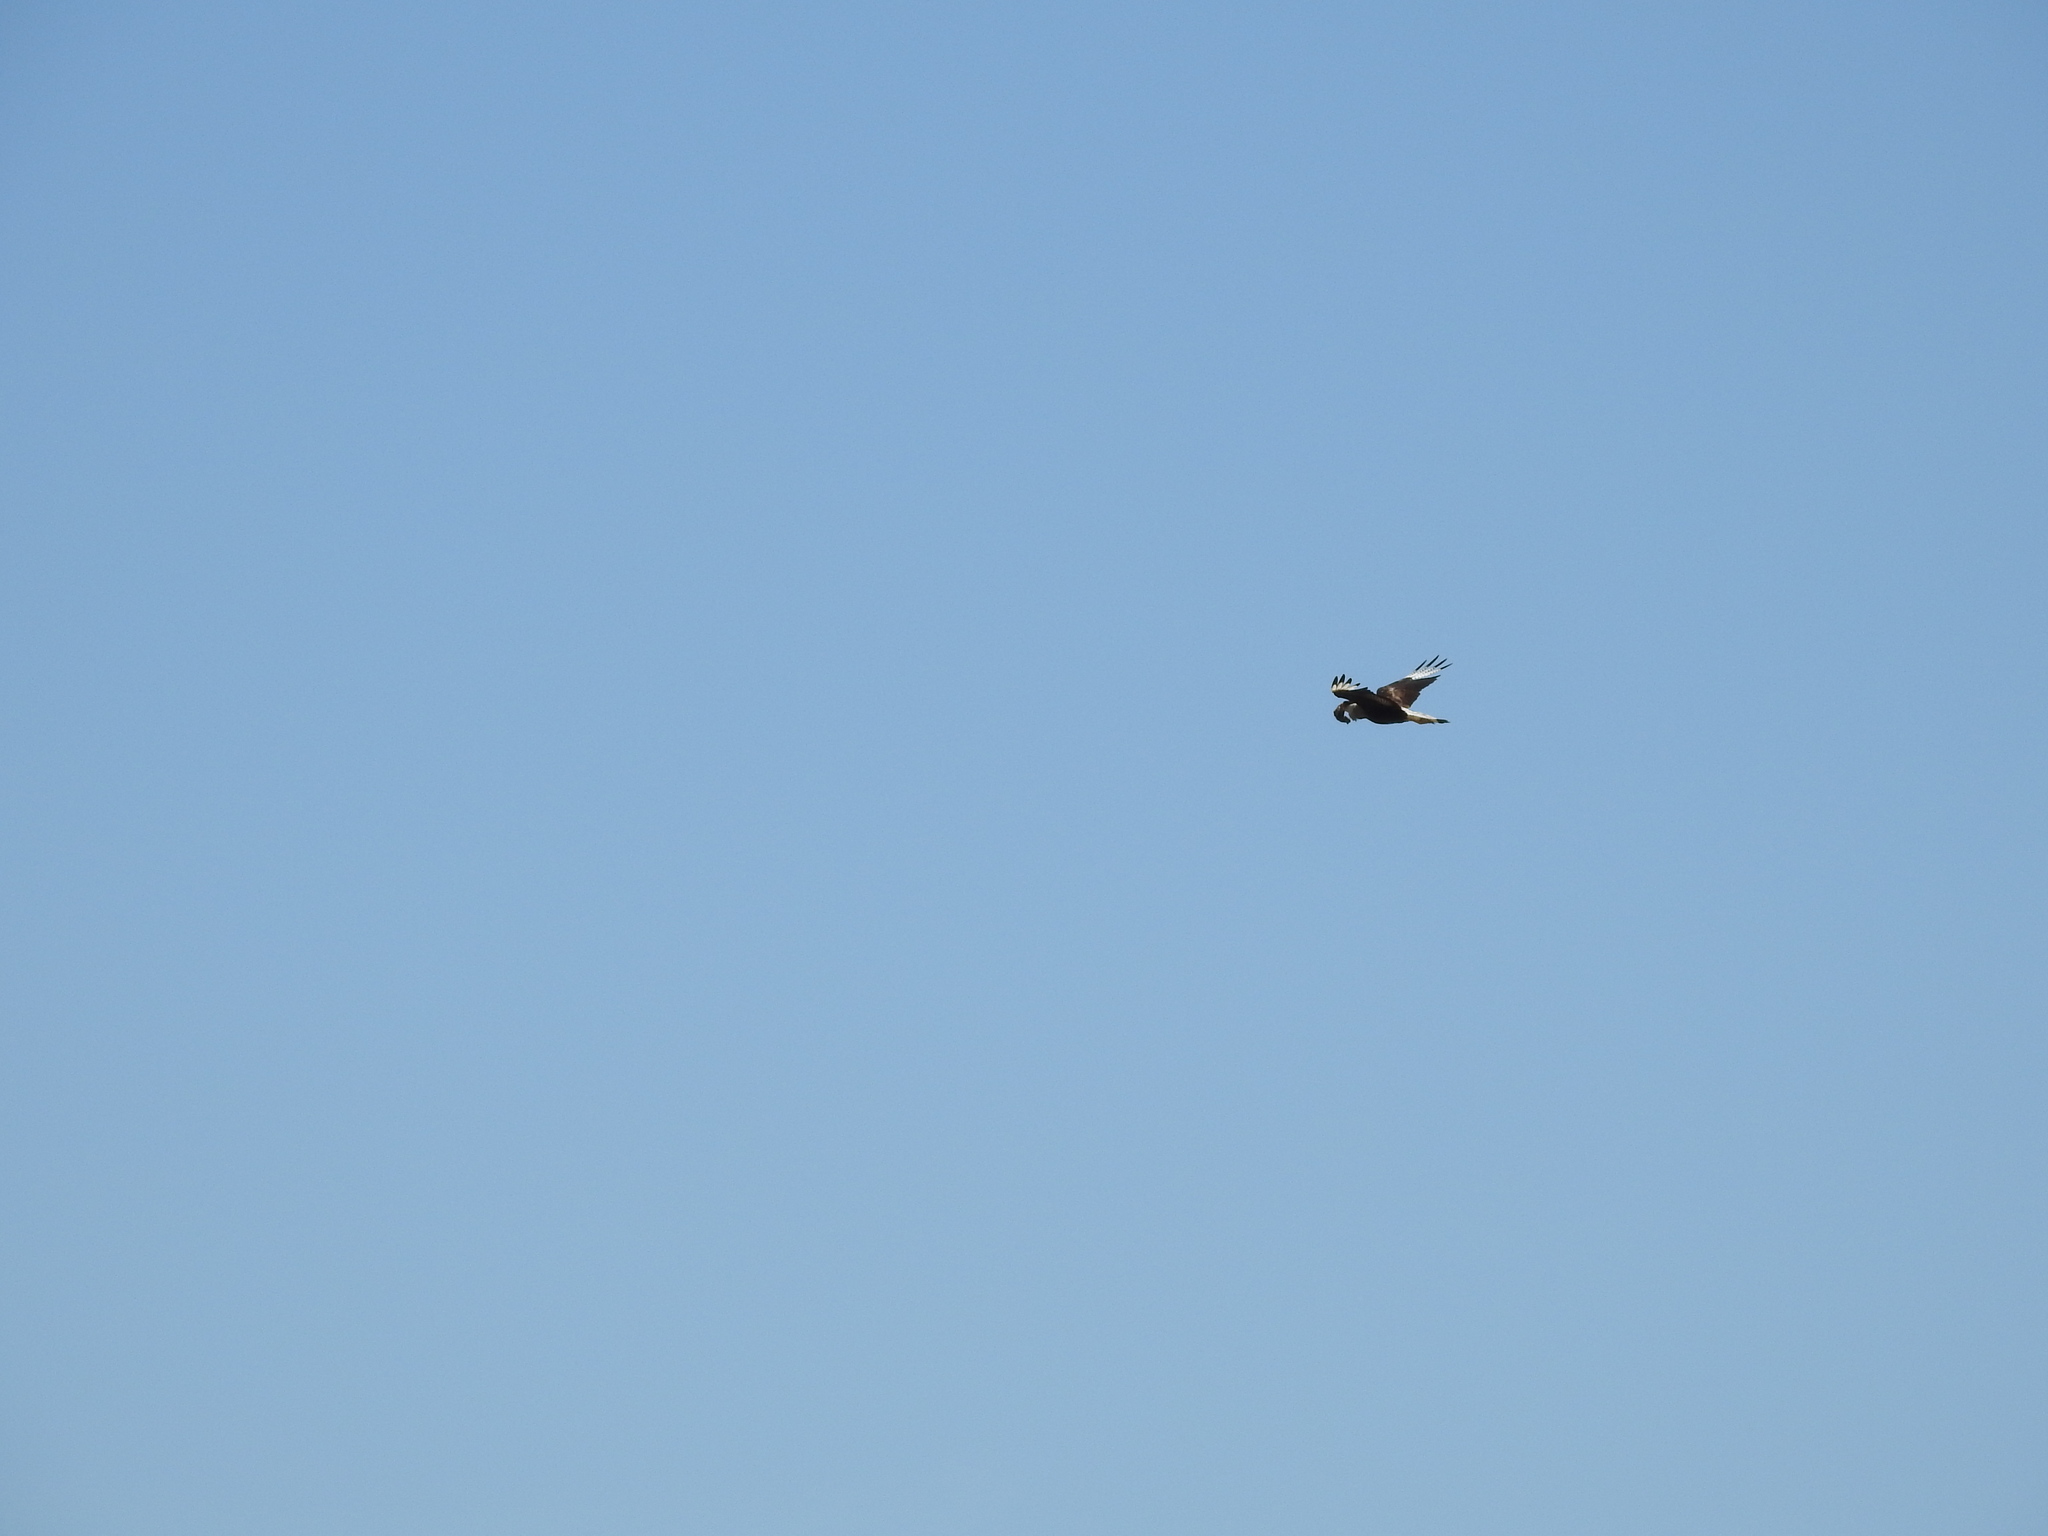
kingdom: Animalia
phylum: Chordata
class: Aves
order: Falconiformes
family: Falconidae
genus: Caracara
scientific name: Caracara plancus
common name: Southern caracara
